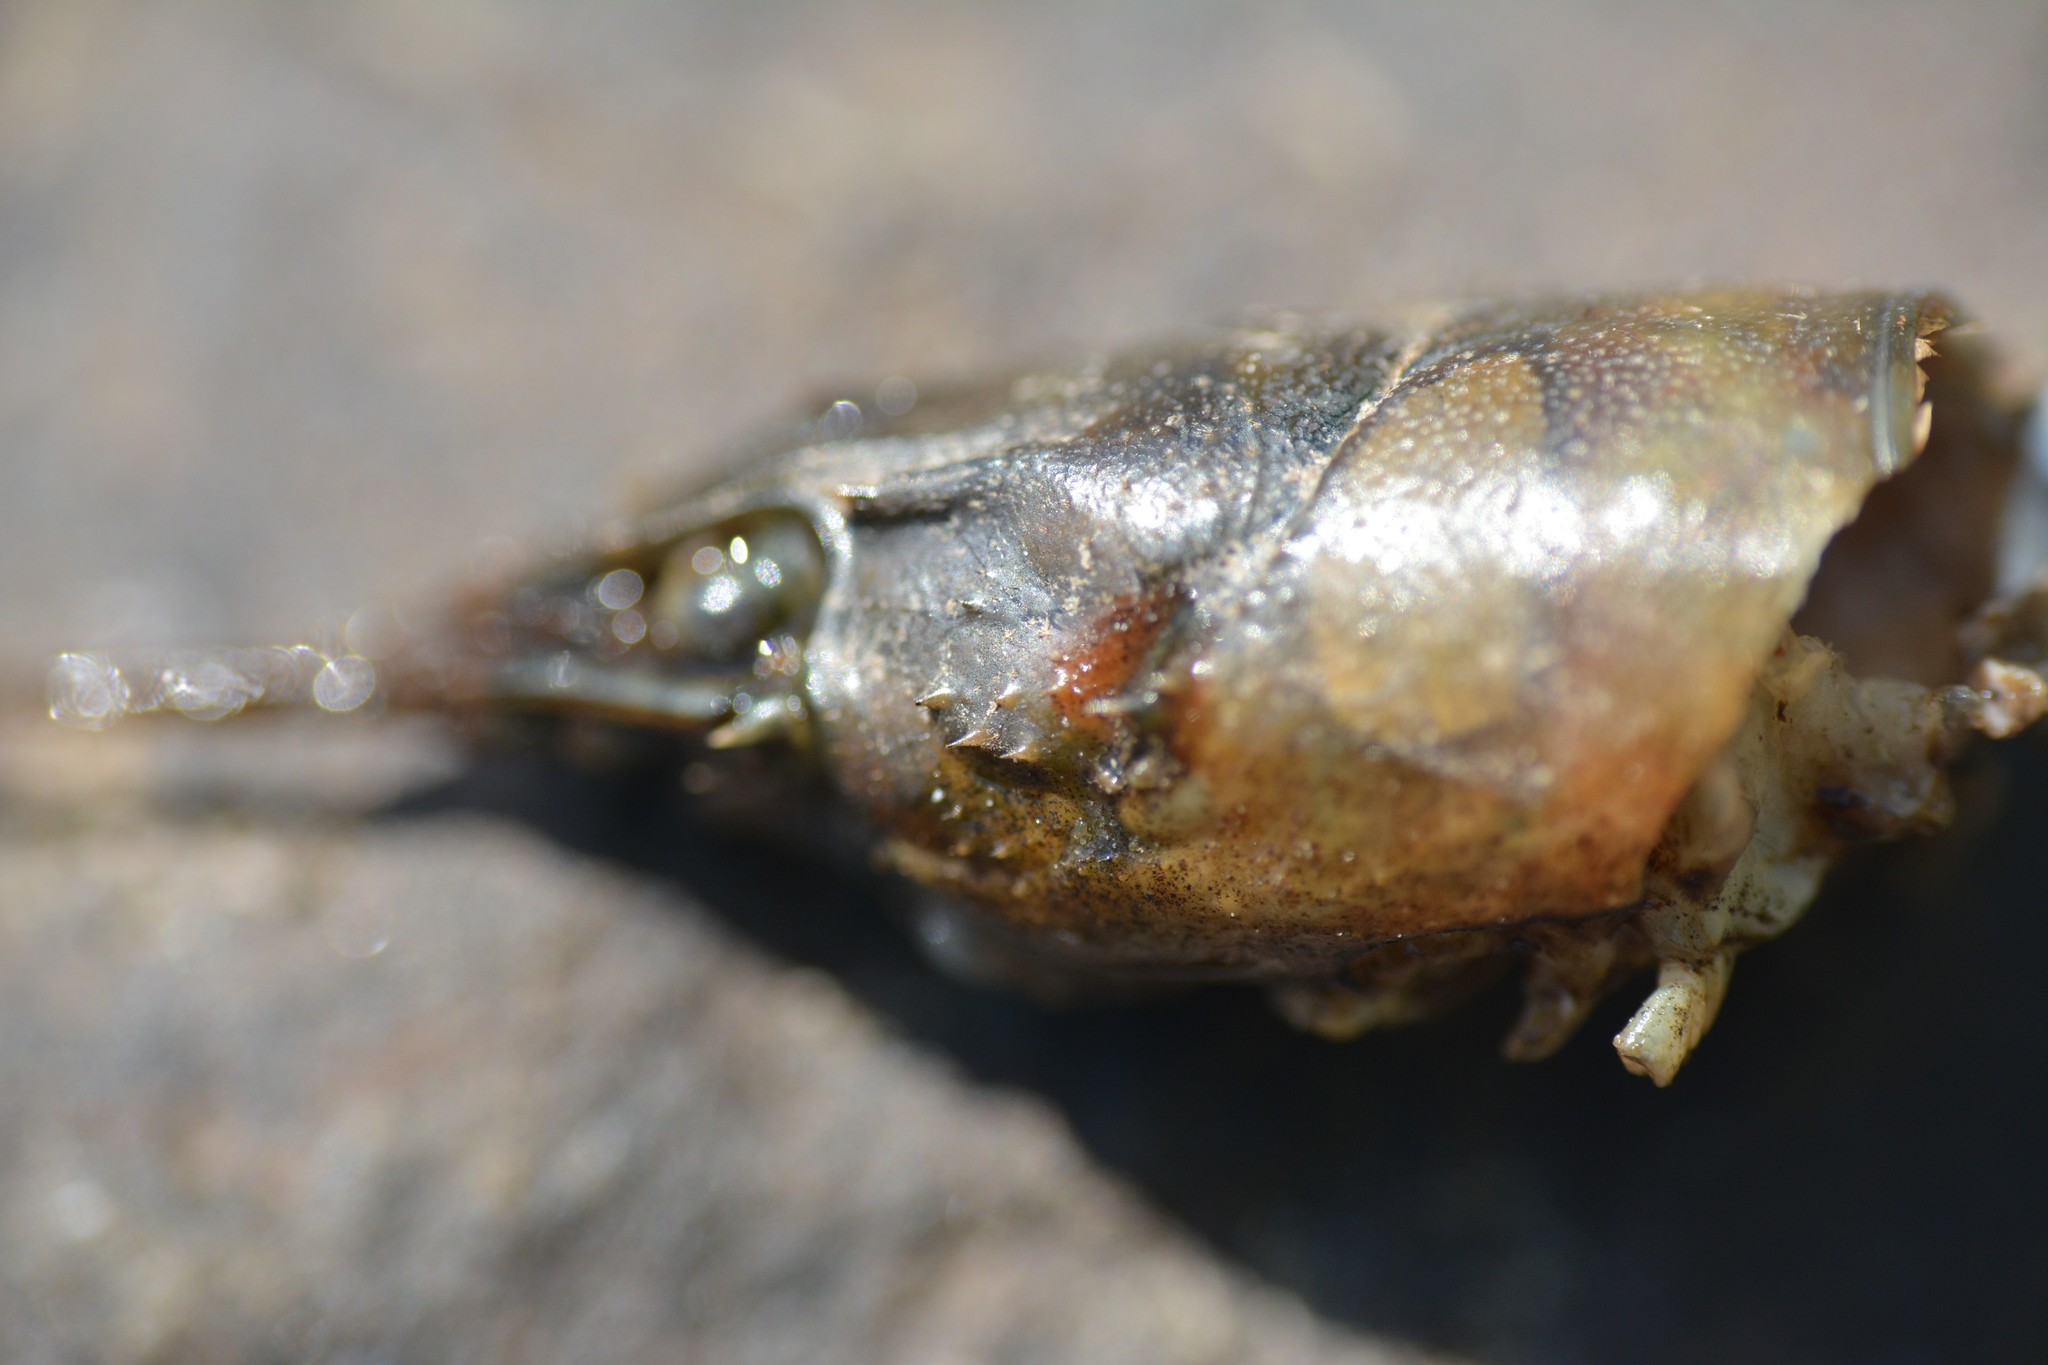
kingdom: Animalia
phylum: Arthropoda
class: Malacostraca
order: Decapoda
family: Cambaridae
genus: Faxonius
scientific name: Faxonius limosus
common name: American crayfish
